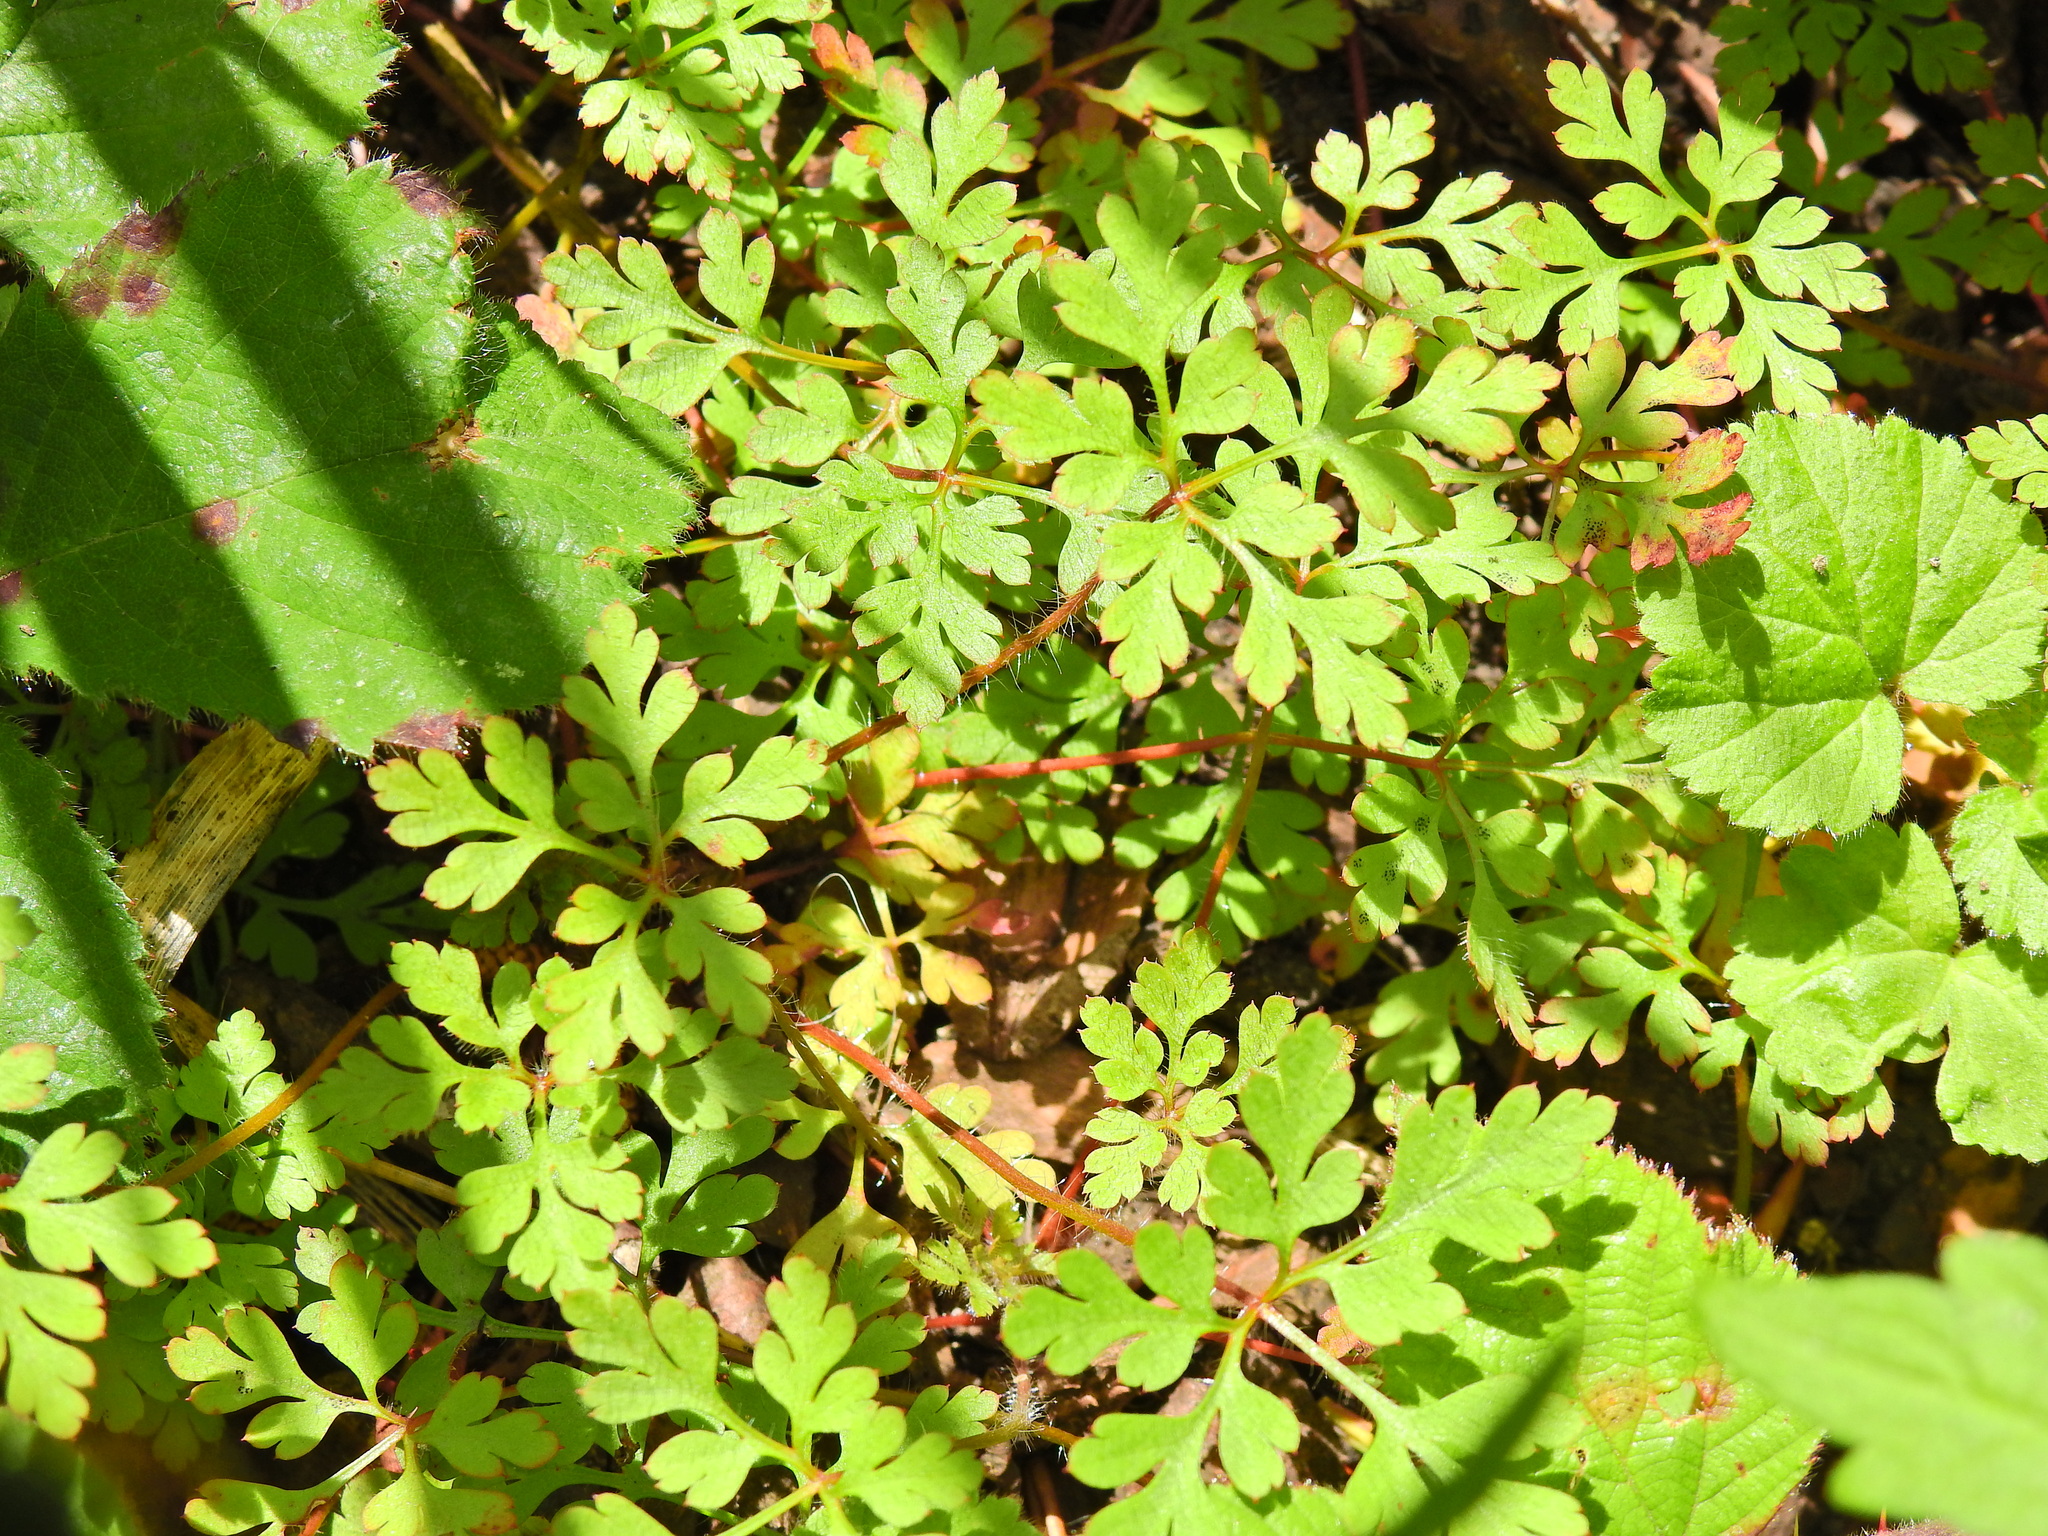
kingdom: Plantae
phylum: Tracheophyta
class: Magnoliopsida
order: Geraniales
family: Geraniaceae
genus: Geranium
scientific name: Geranium robertianum
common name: Herb-robert
